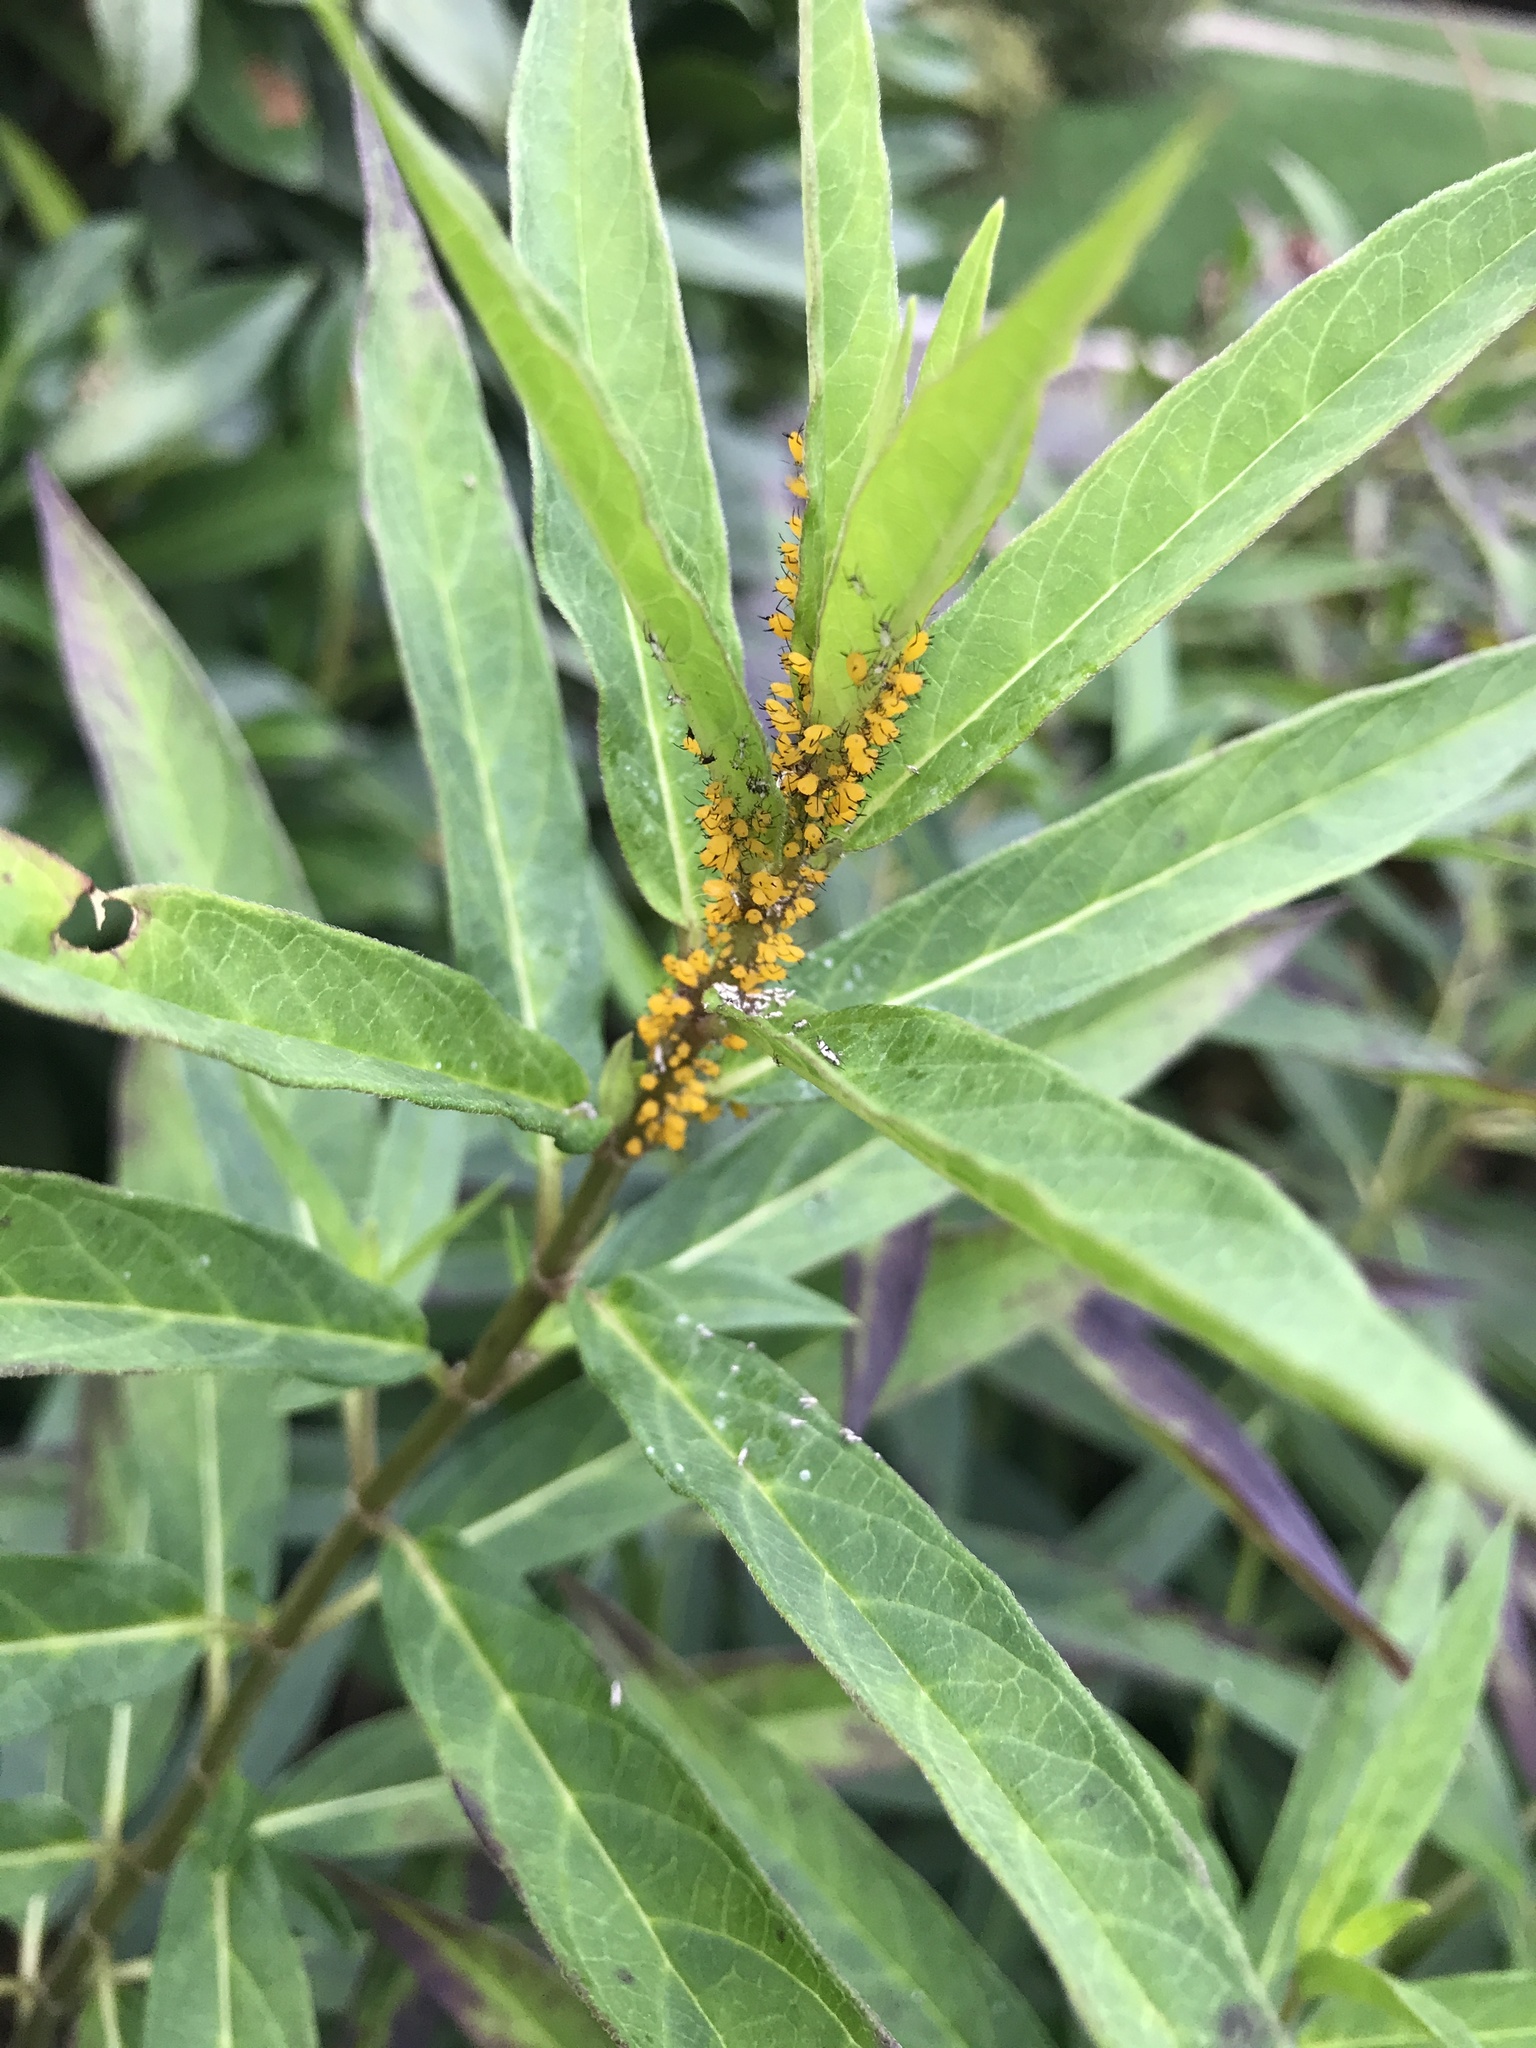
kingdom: Animalia
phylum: Arthropoda
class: Insecta
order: Hemiptera
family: Aphididae
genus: Aphis
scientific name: Aphis nerii
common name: Oleander aphid
